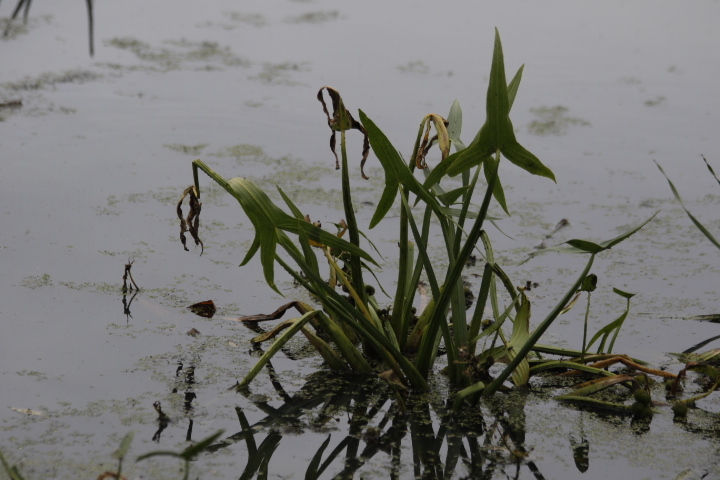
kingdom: Plantae
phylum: Tracheophyta
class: Liliopsida
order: Alismatales
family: Alismataceae
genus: Sagittaria
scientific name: Sagittaria sagittifolia
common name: Arrowhead
